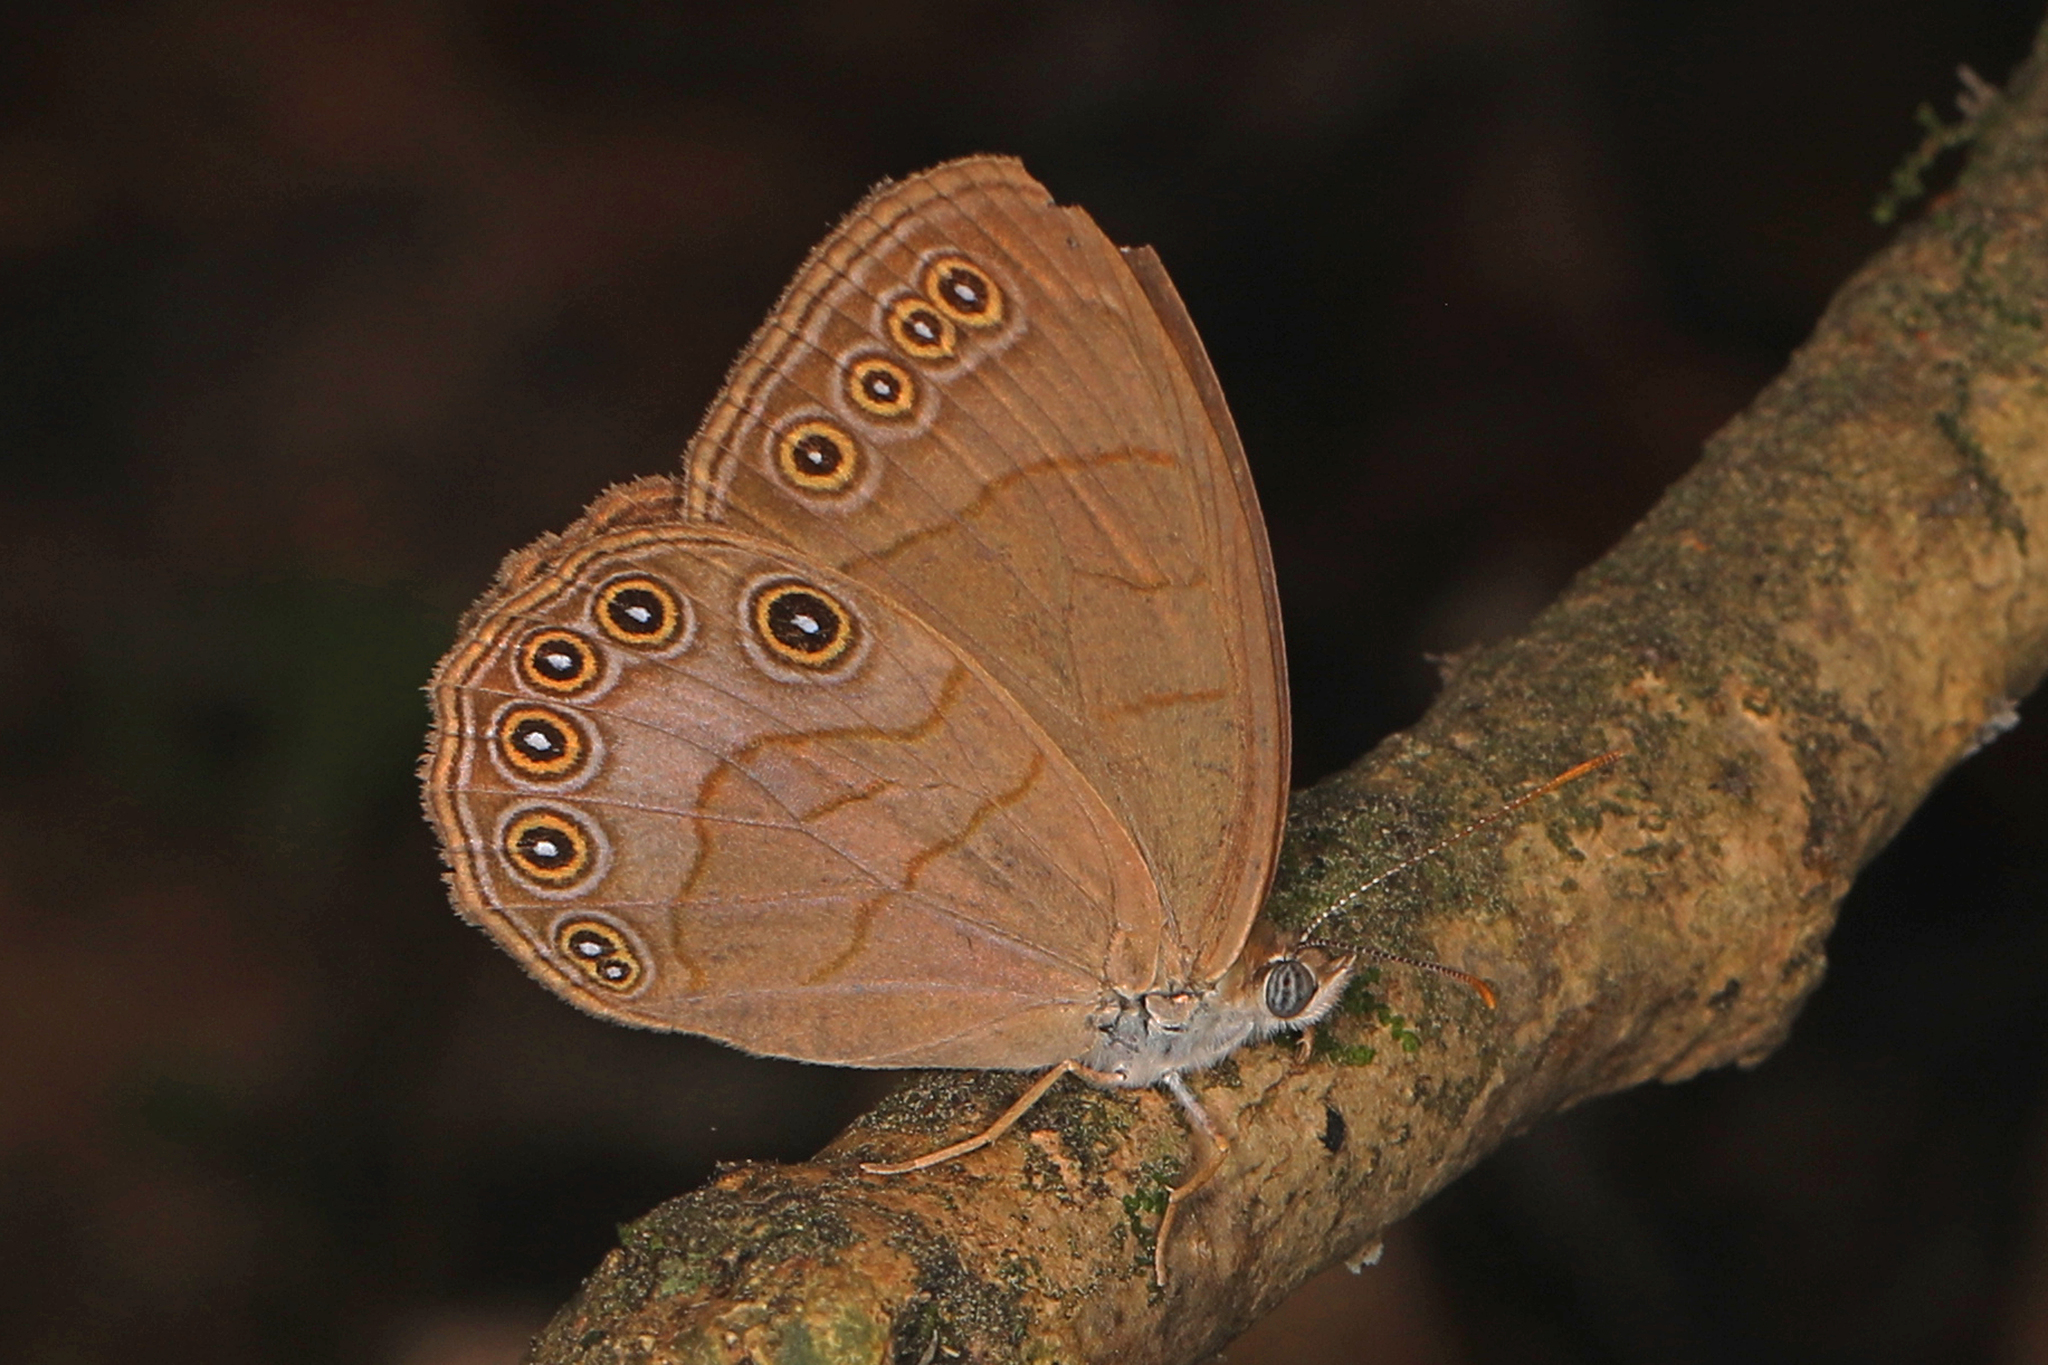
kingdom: Animalia
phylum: Arthropoda
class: Insecta
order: Lepidoptera
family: Nymphalidae
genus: Lethe
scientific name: Lethe eurydice
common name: Eyed brown
